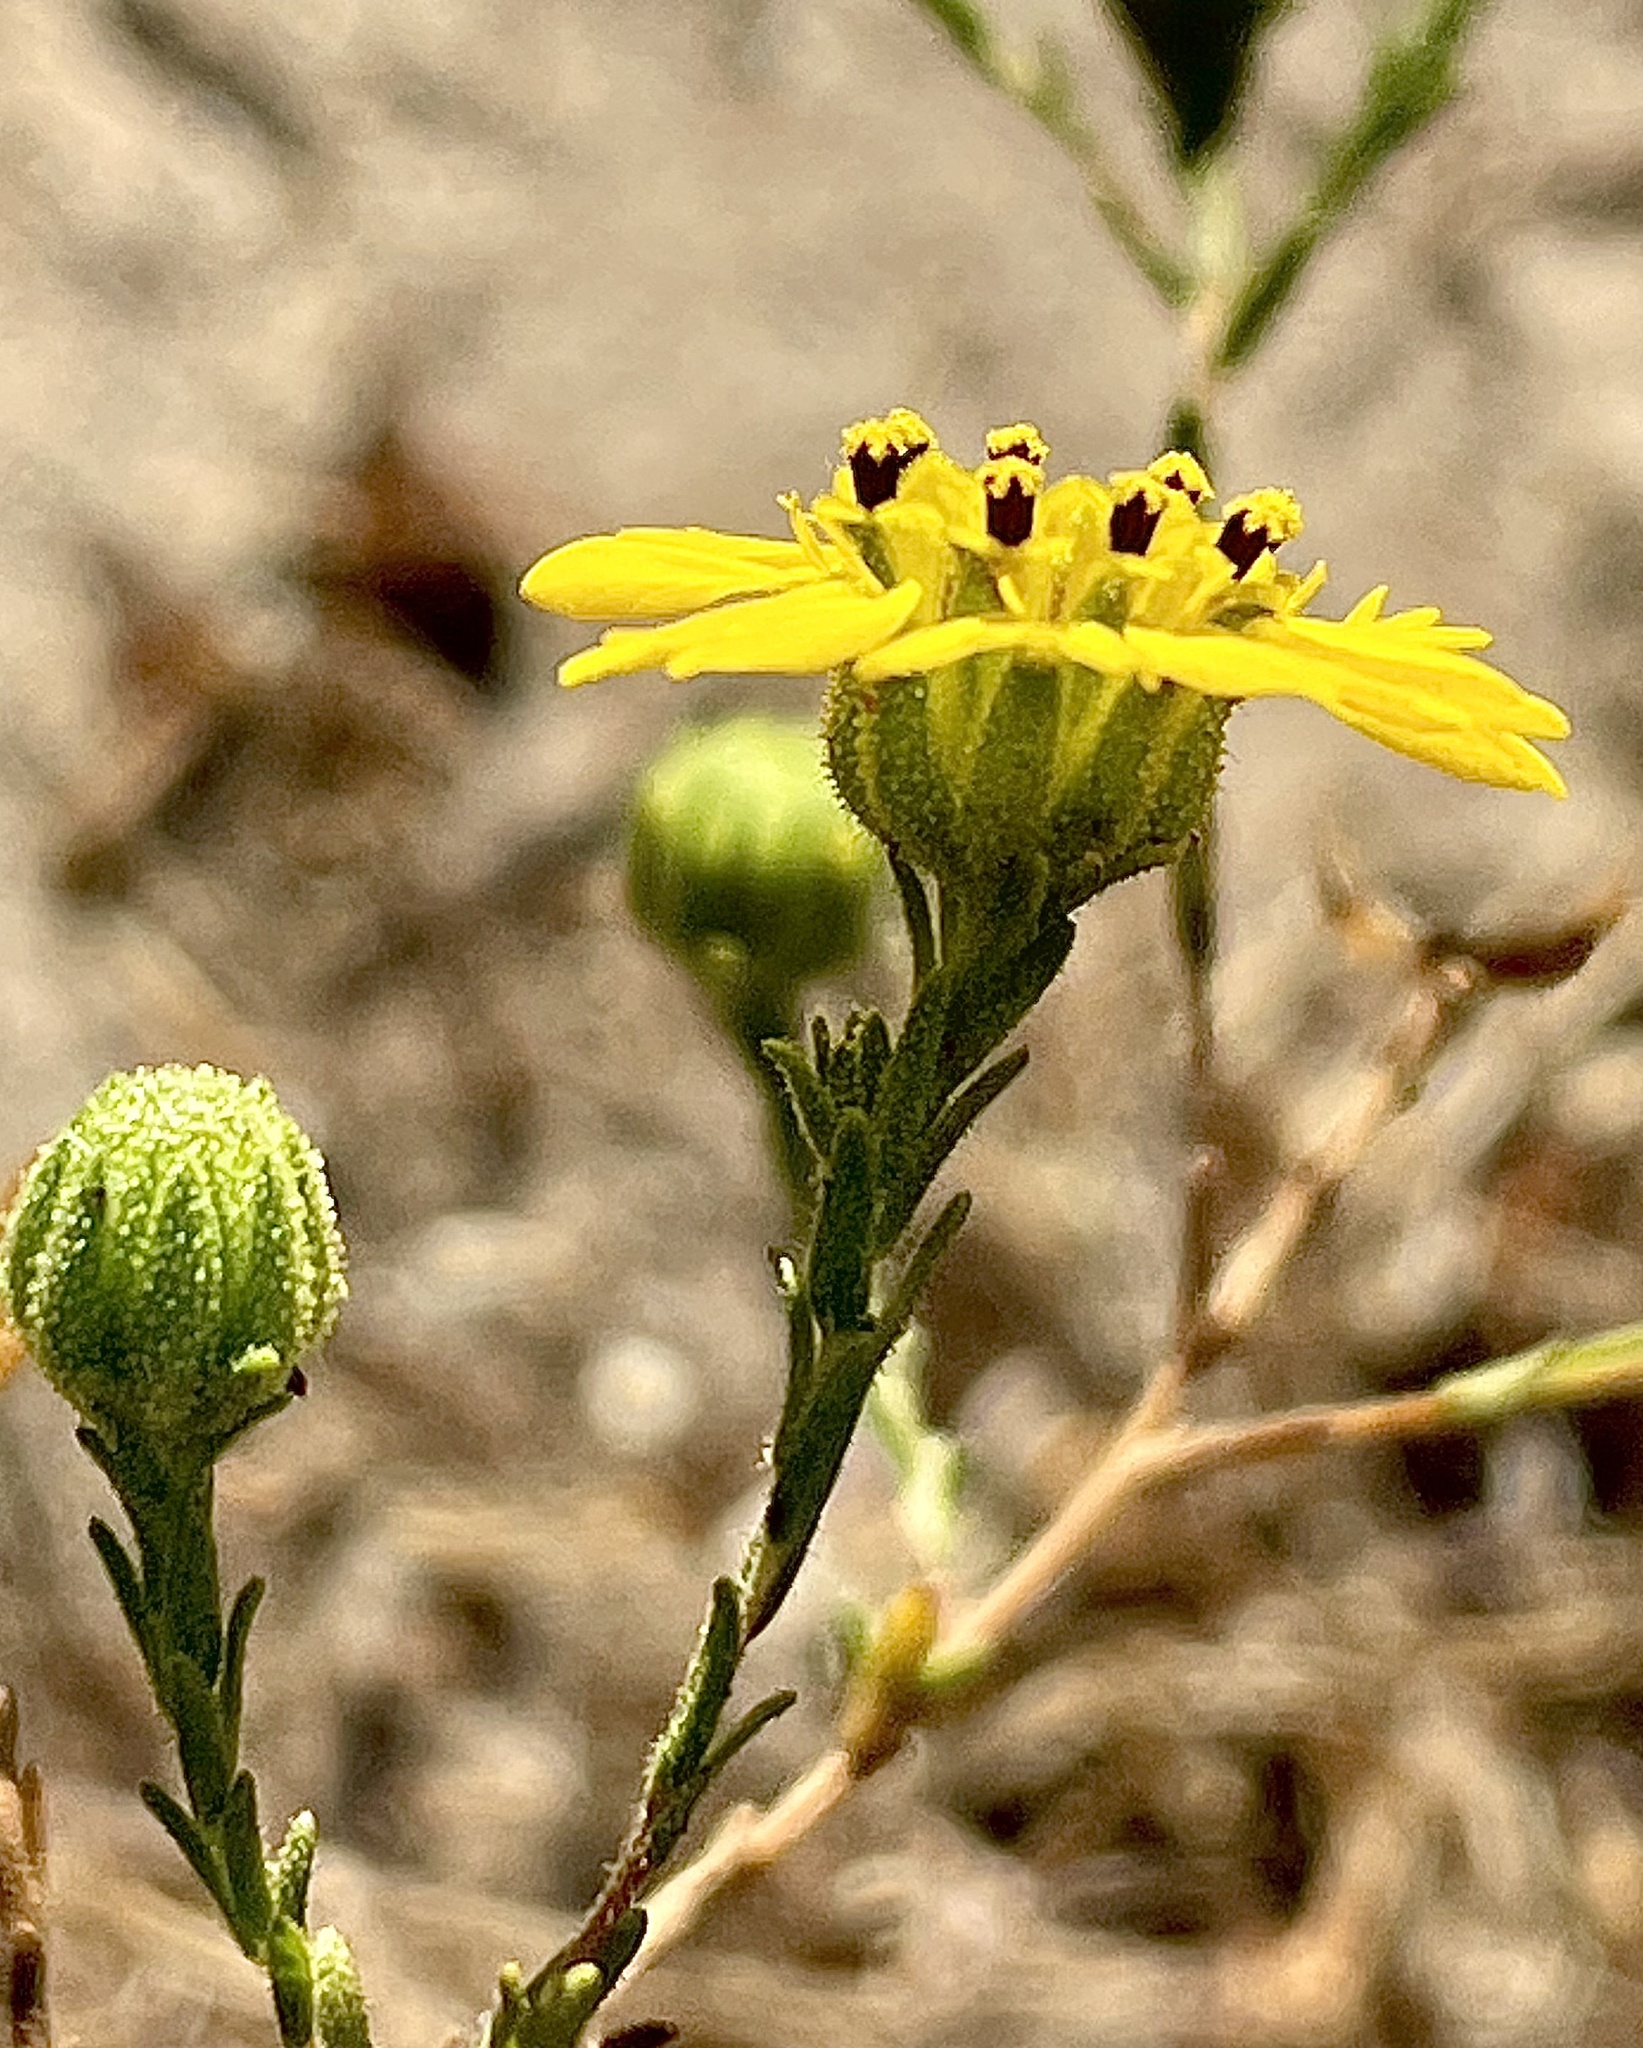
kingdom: Plantae
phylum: Tracheophyta
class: Magnoliopsida
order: Asterales
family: Asteraceae
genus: Deinandra
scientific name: Deinandra paniculata
